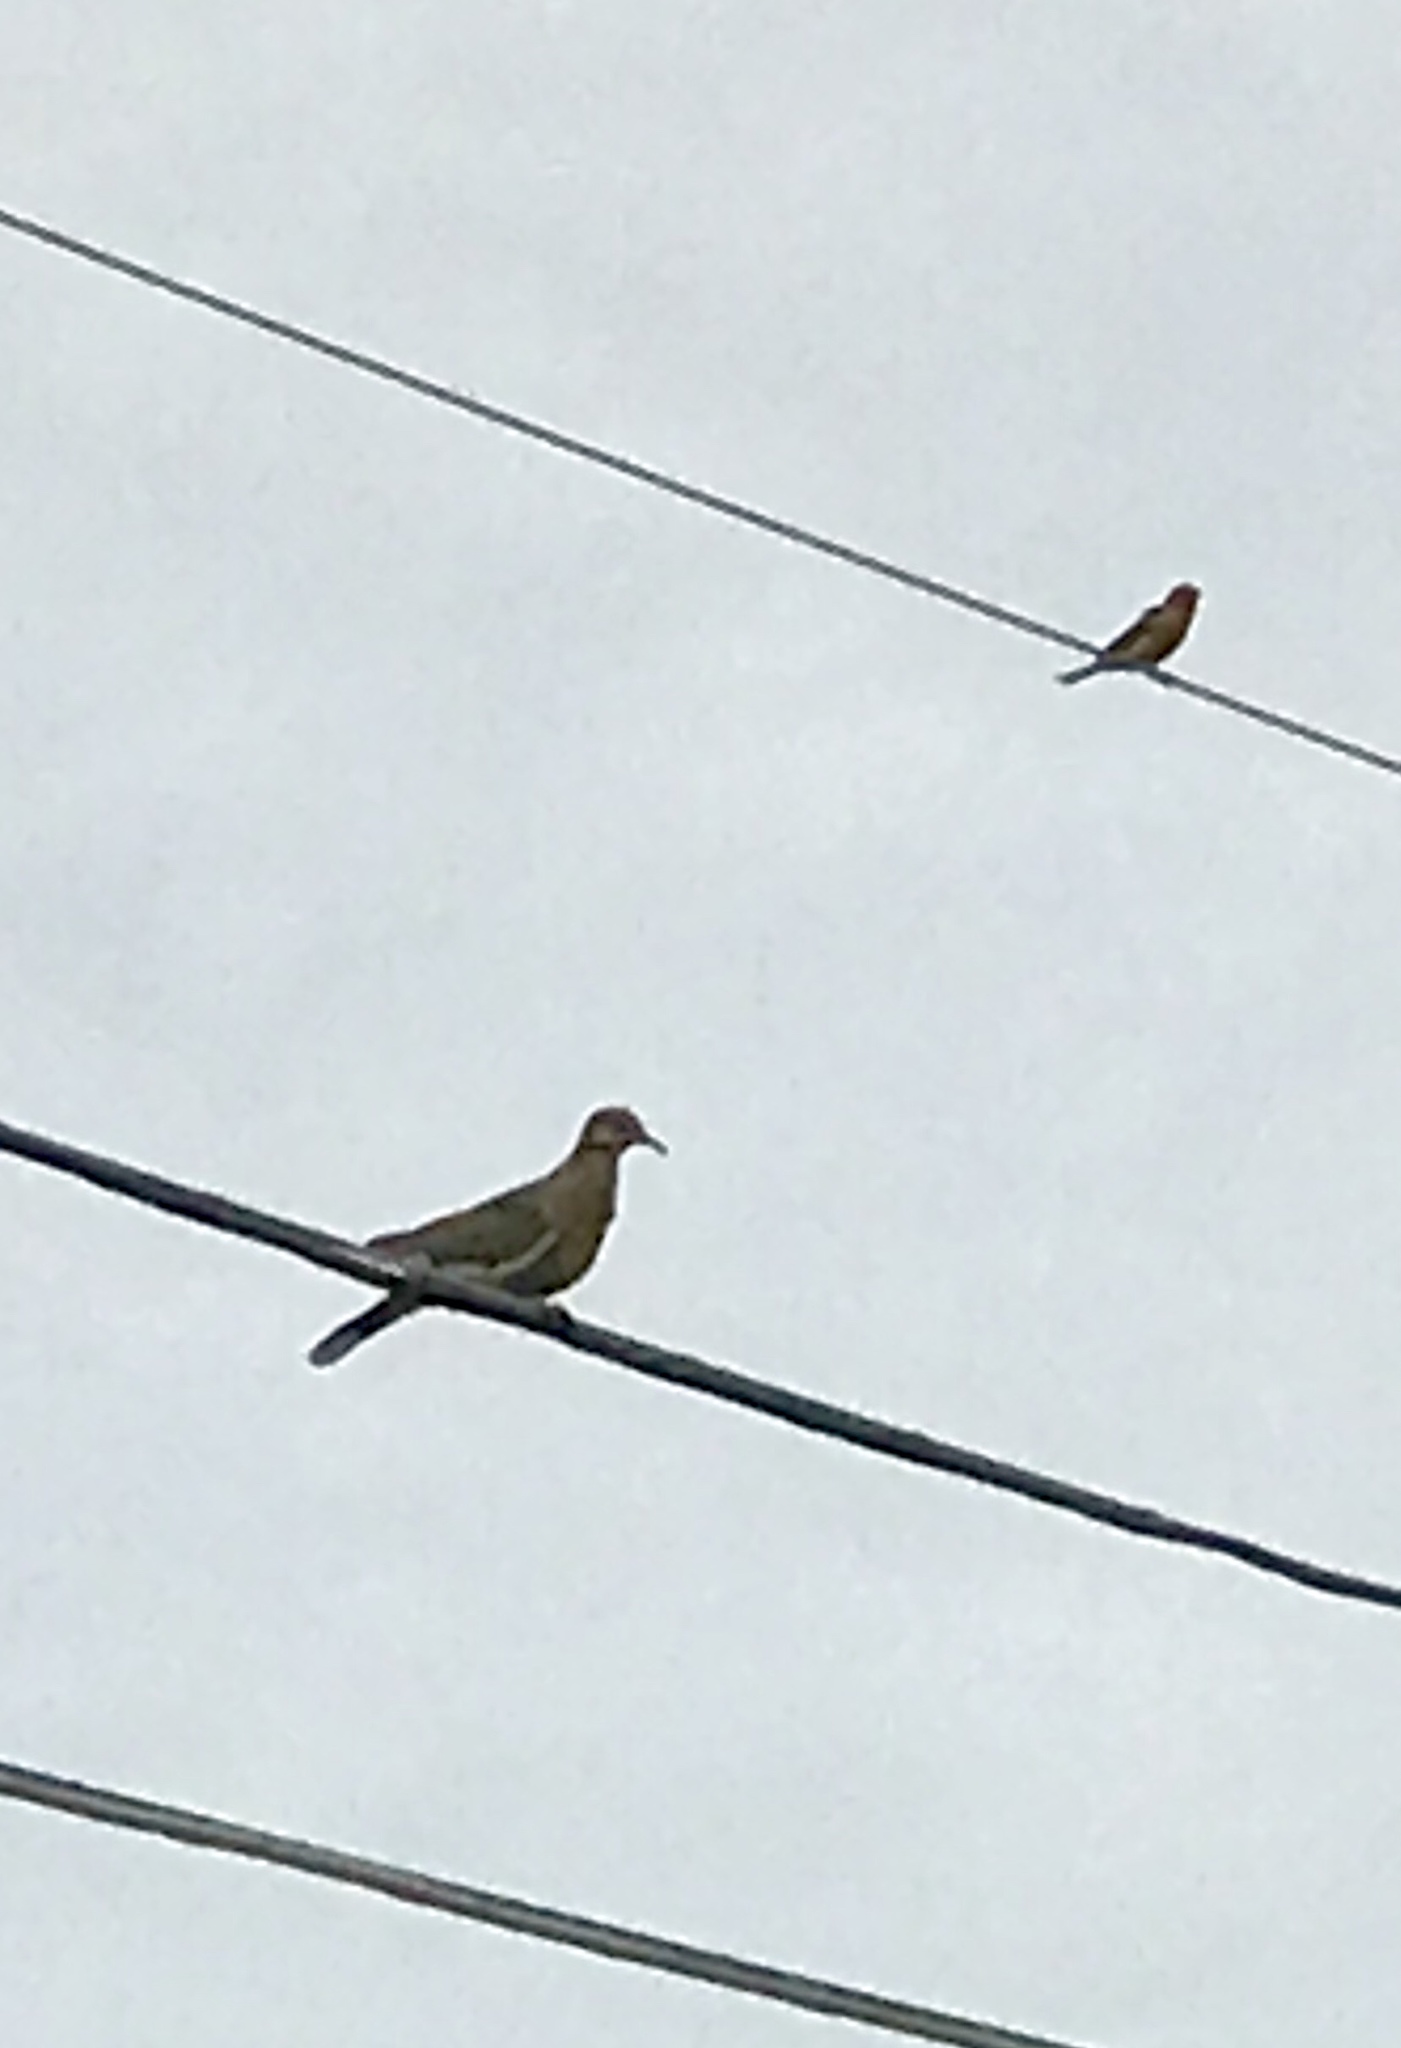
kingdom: Animalia
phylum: Chordata
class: Aves
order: Columbiformes
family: Columbidae
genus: Zenaida
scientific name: Zenaida asiatica
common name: White-winged dove
